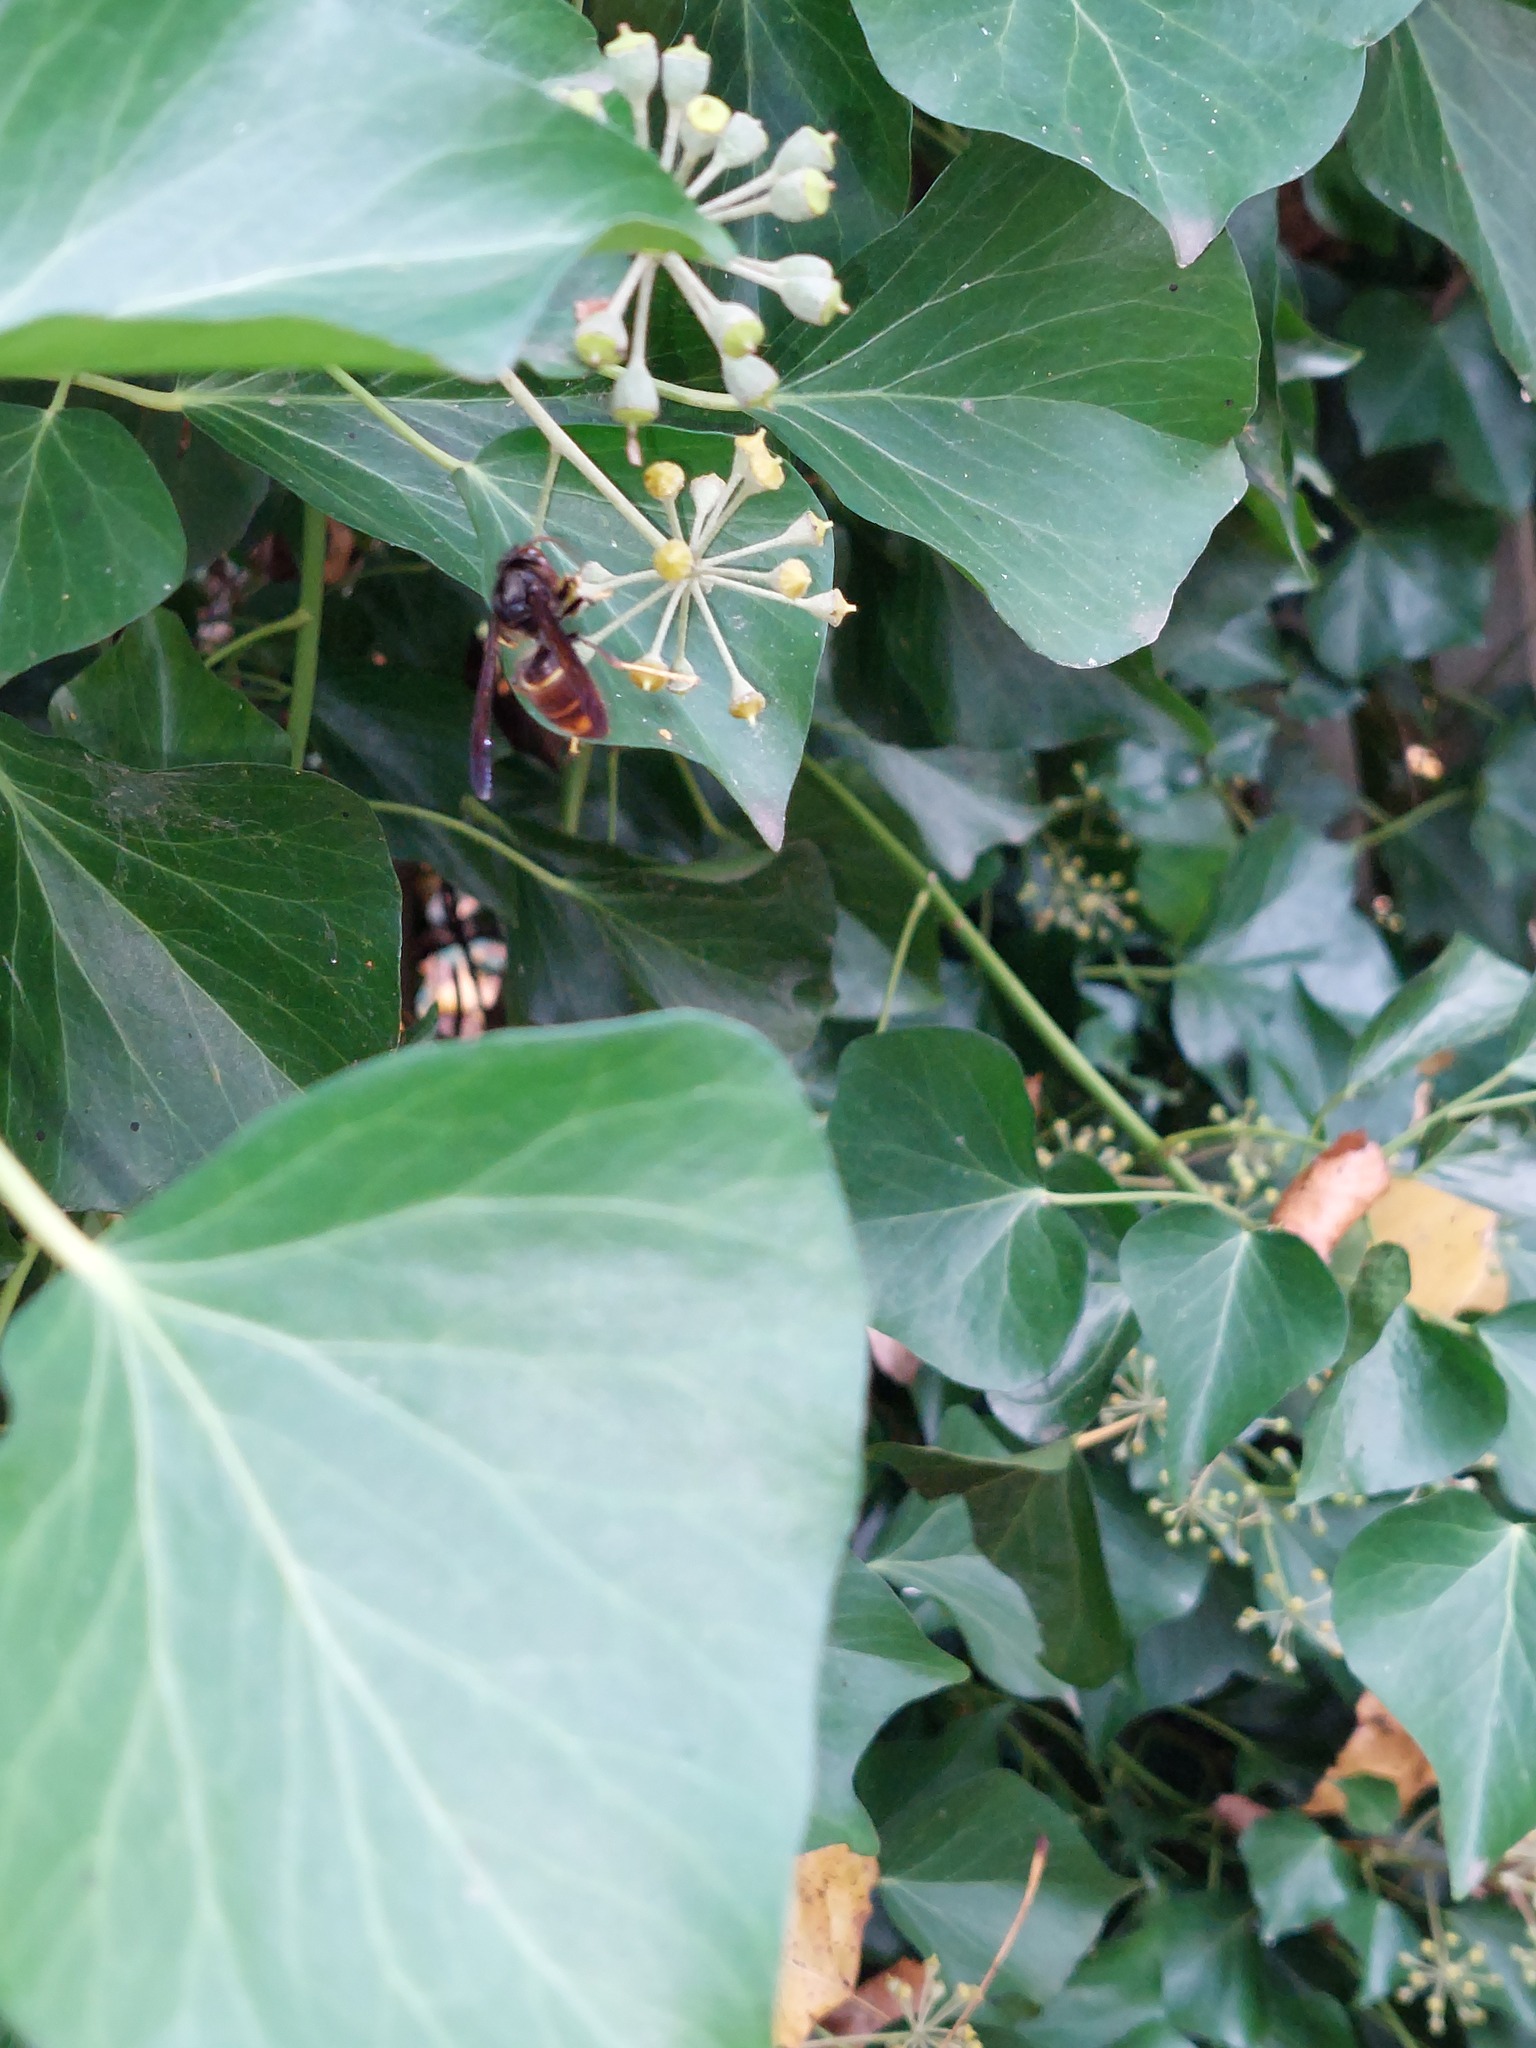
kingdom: Animalia
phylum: Arthropoda
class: Insecta
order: Hymenoptera
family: Vespidae
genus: Vespa
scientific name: Vespa velutina
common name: Asian hornet
